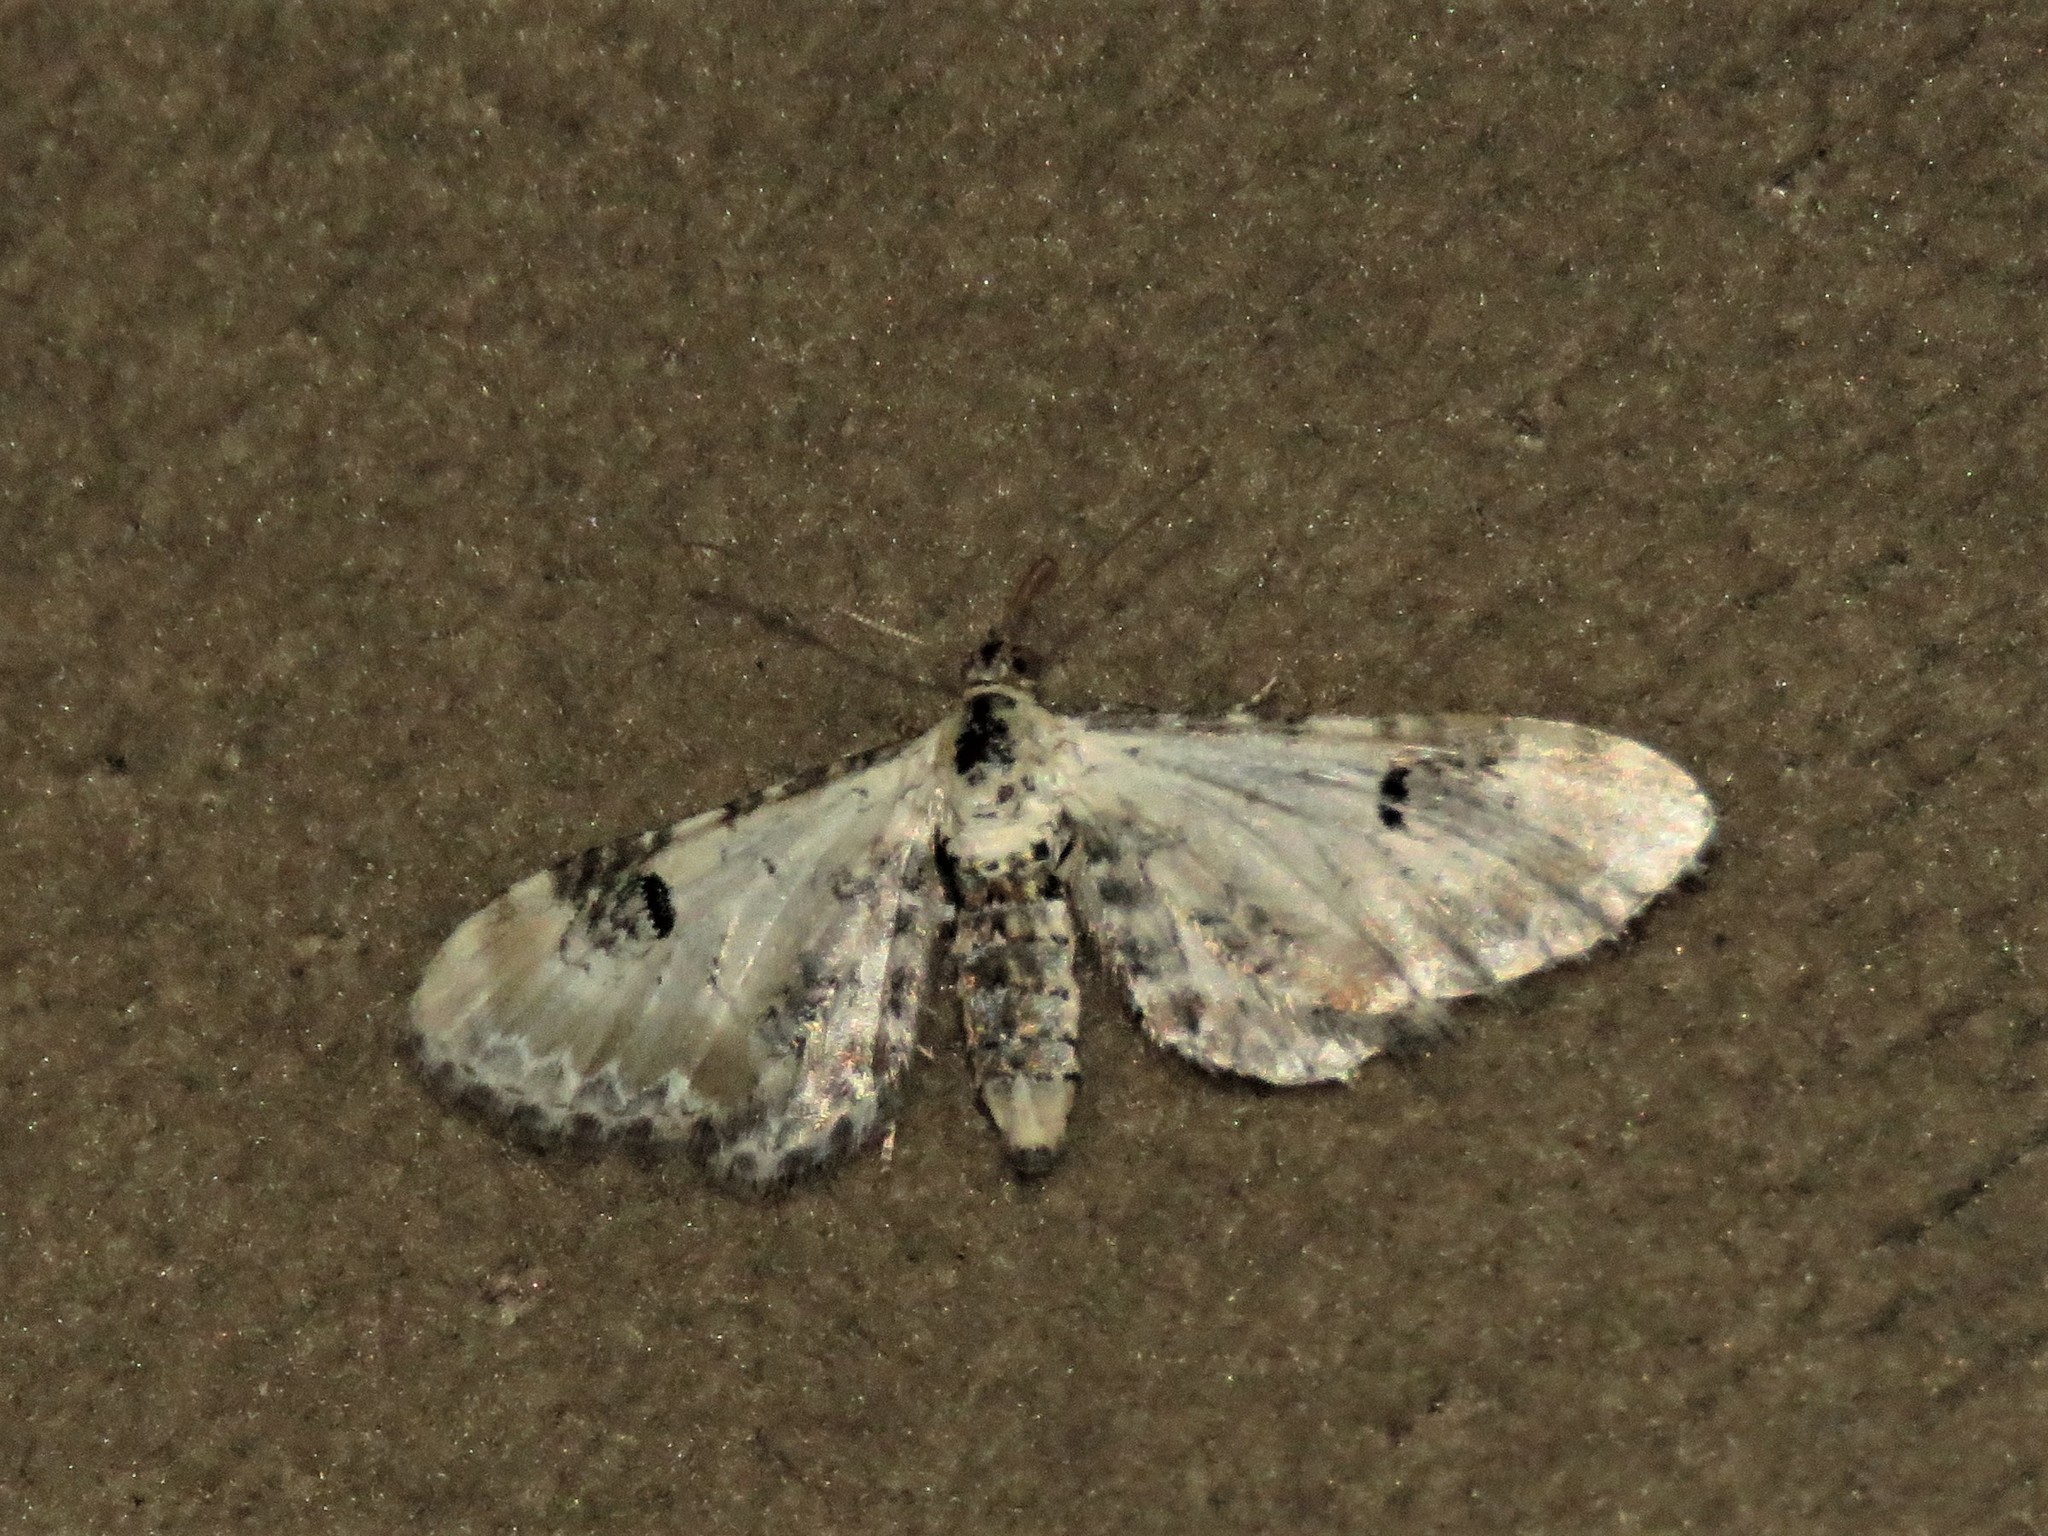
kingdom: Animalia
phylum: Arthropoda
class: Insecta
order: Lepidoptera
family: Geometridae
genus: Eupithecia
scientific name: Eupithecia centaureata
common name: Lime-speck pug
